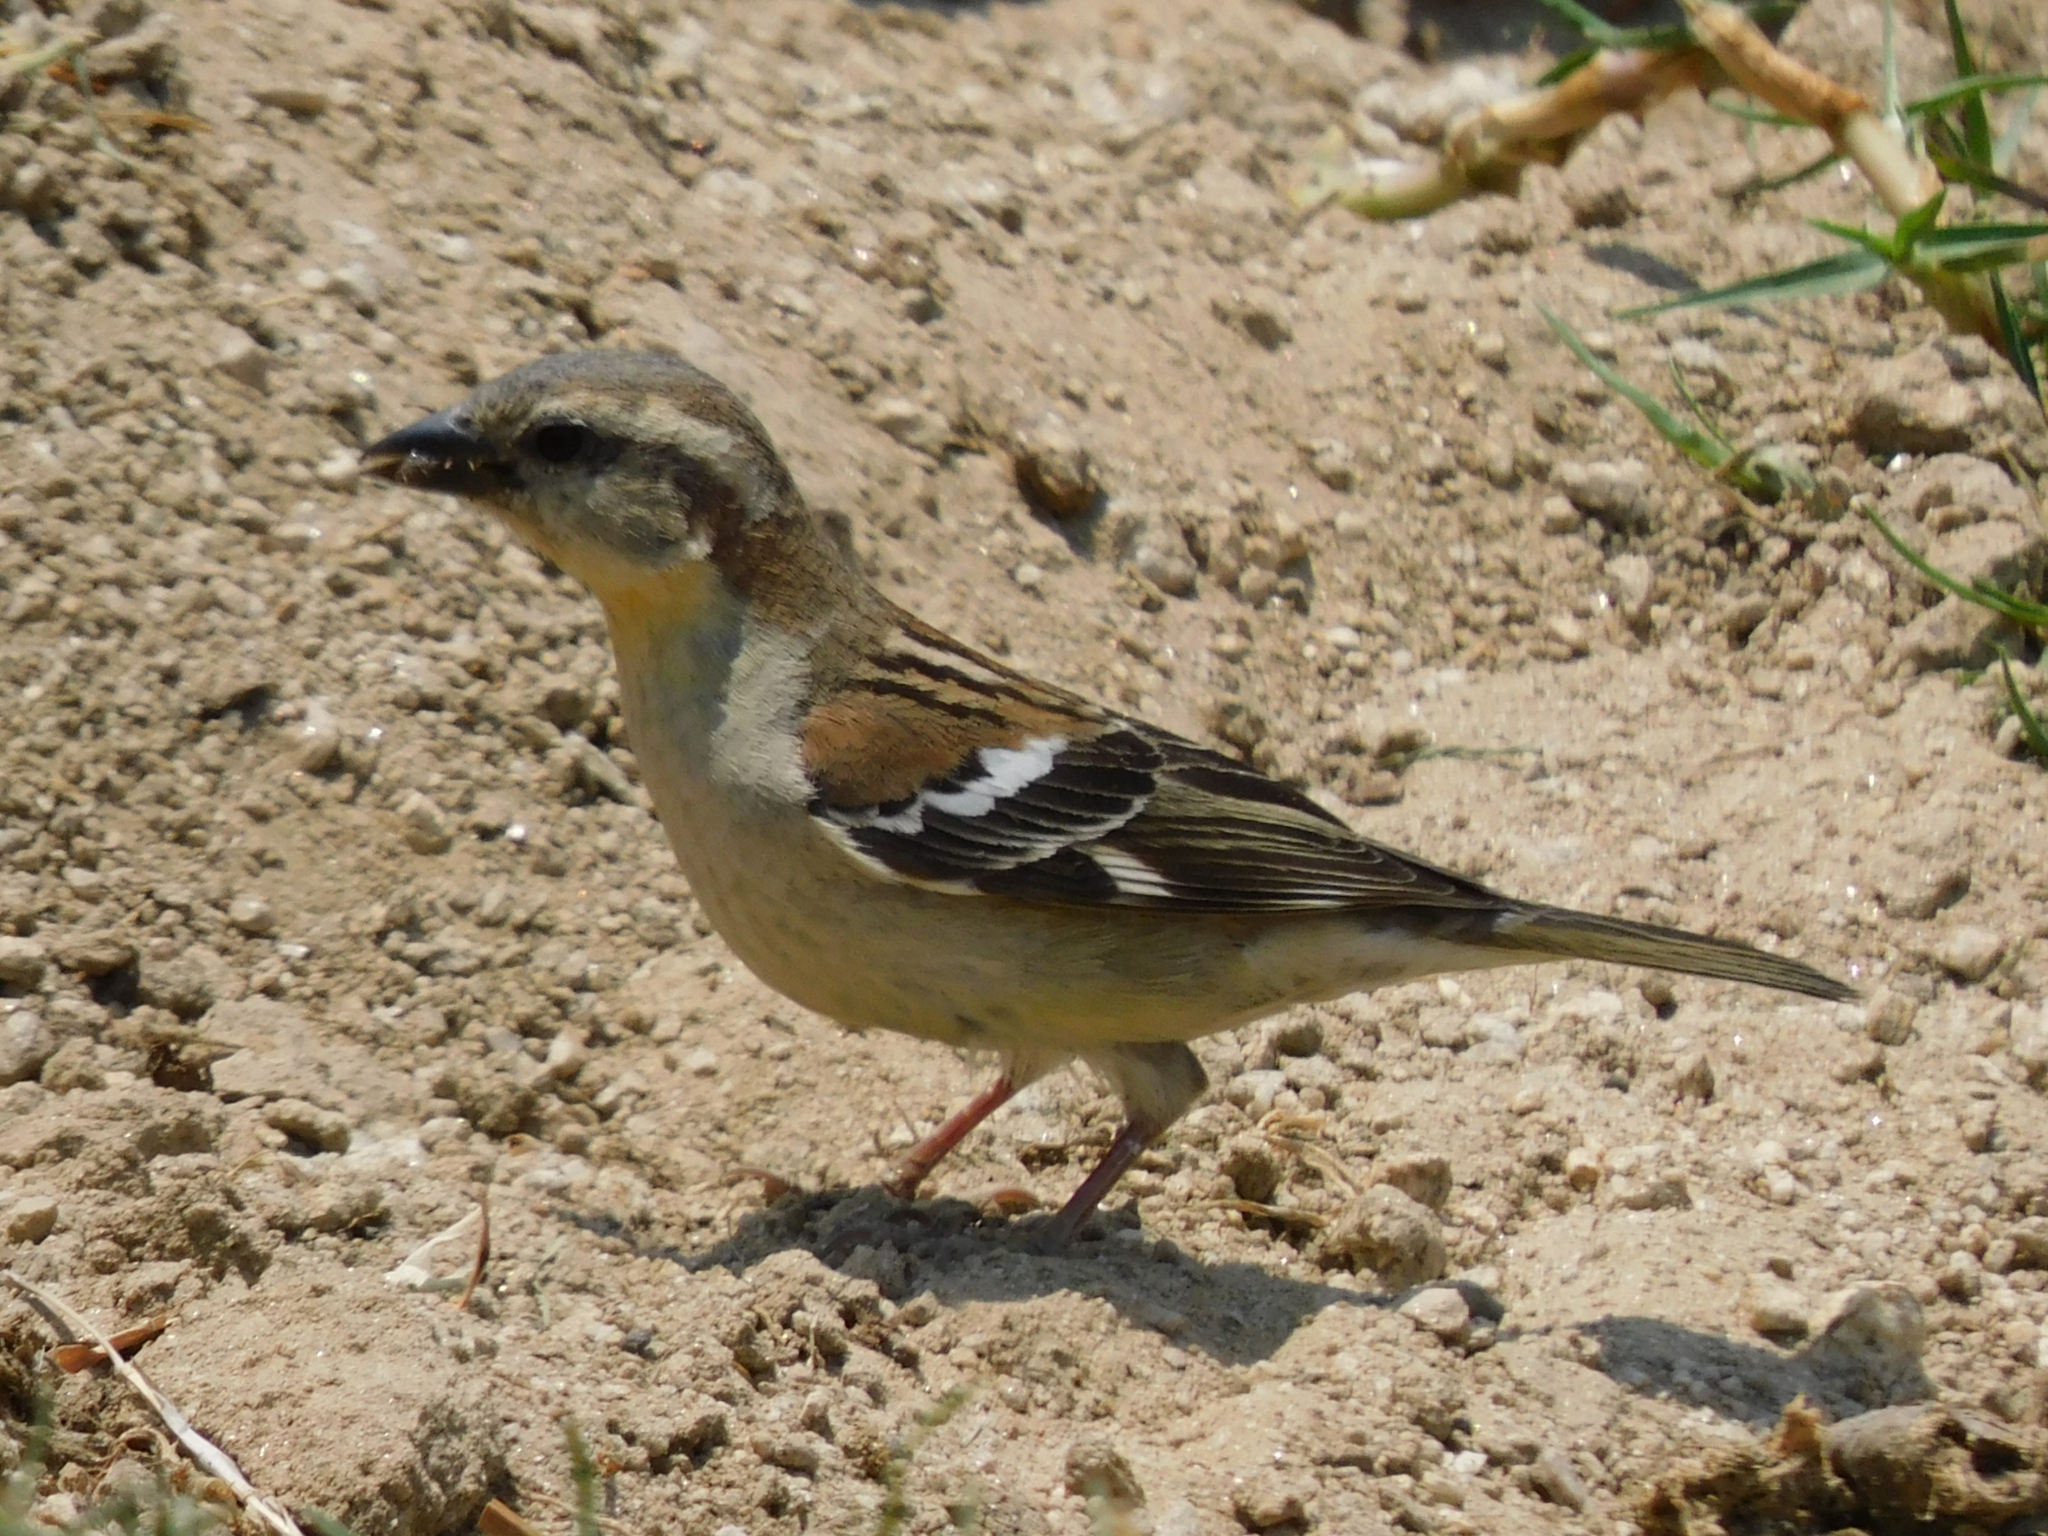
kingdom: Animalia
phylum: Chordata
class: Aves
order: Passeriformes
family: Passeridae
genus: Passer
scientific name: Passer cinnamomeus
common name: Russet sparrow
